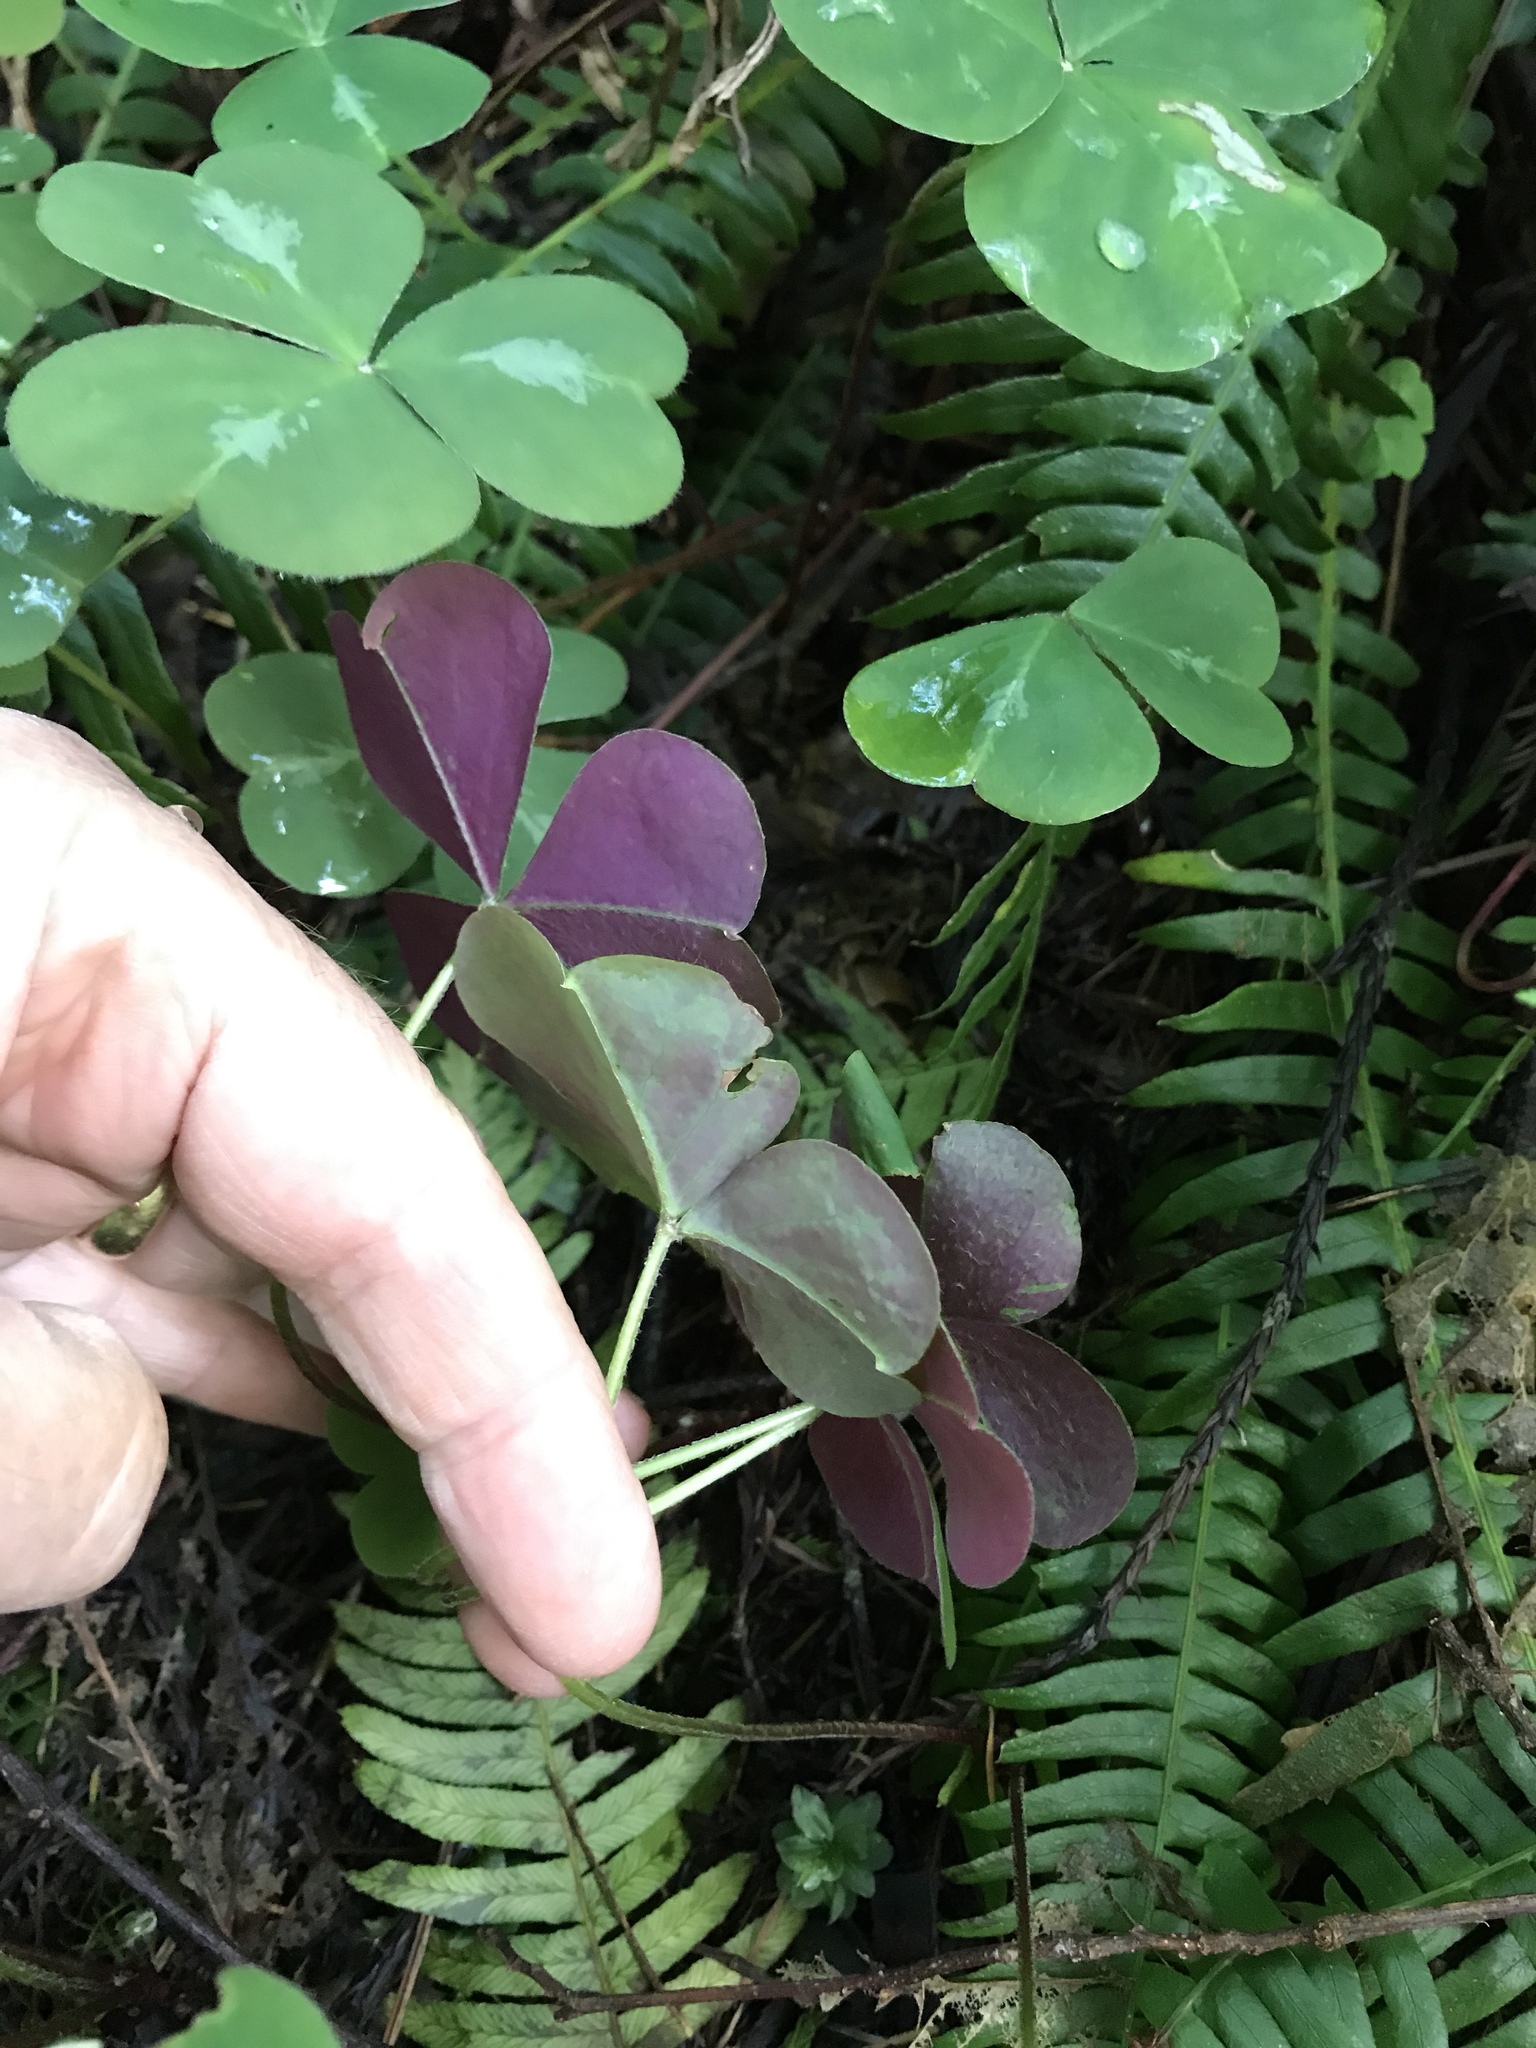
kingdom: Plantae
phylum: Tracheophyta
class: Magnoliopsida
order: Oxalidales
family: Oxalidaceae
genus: Oxalis
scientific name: Oxalis oregana
